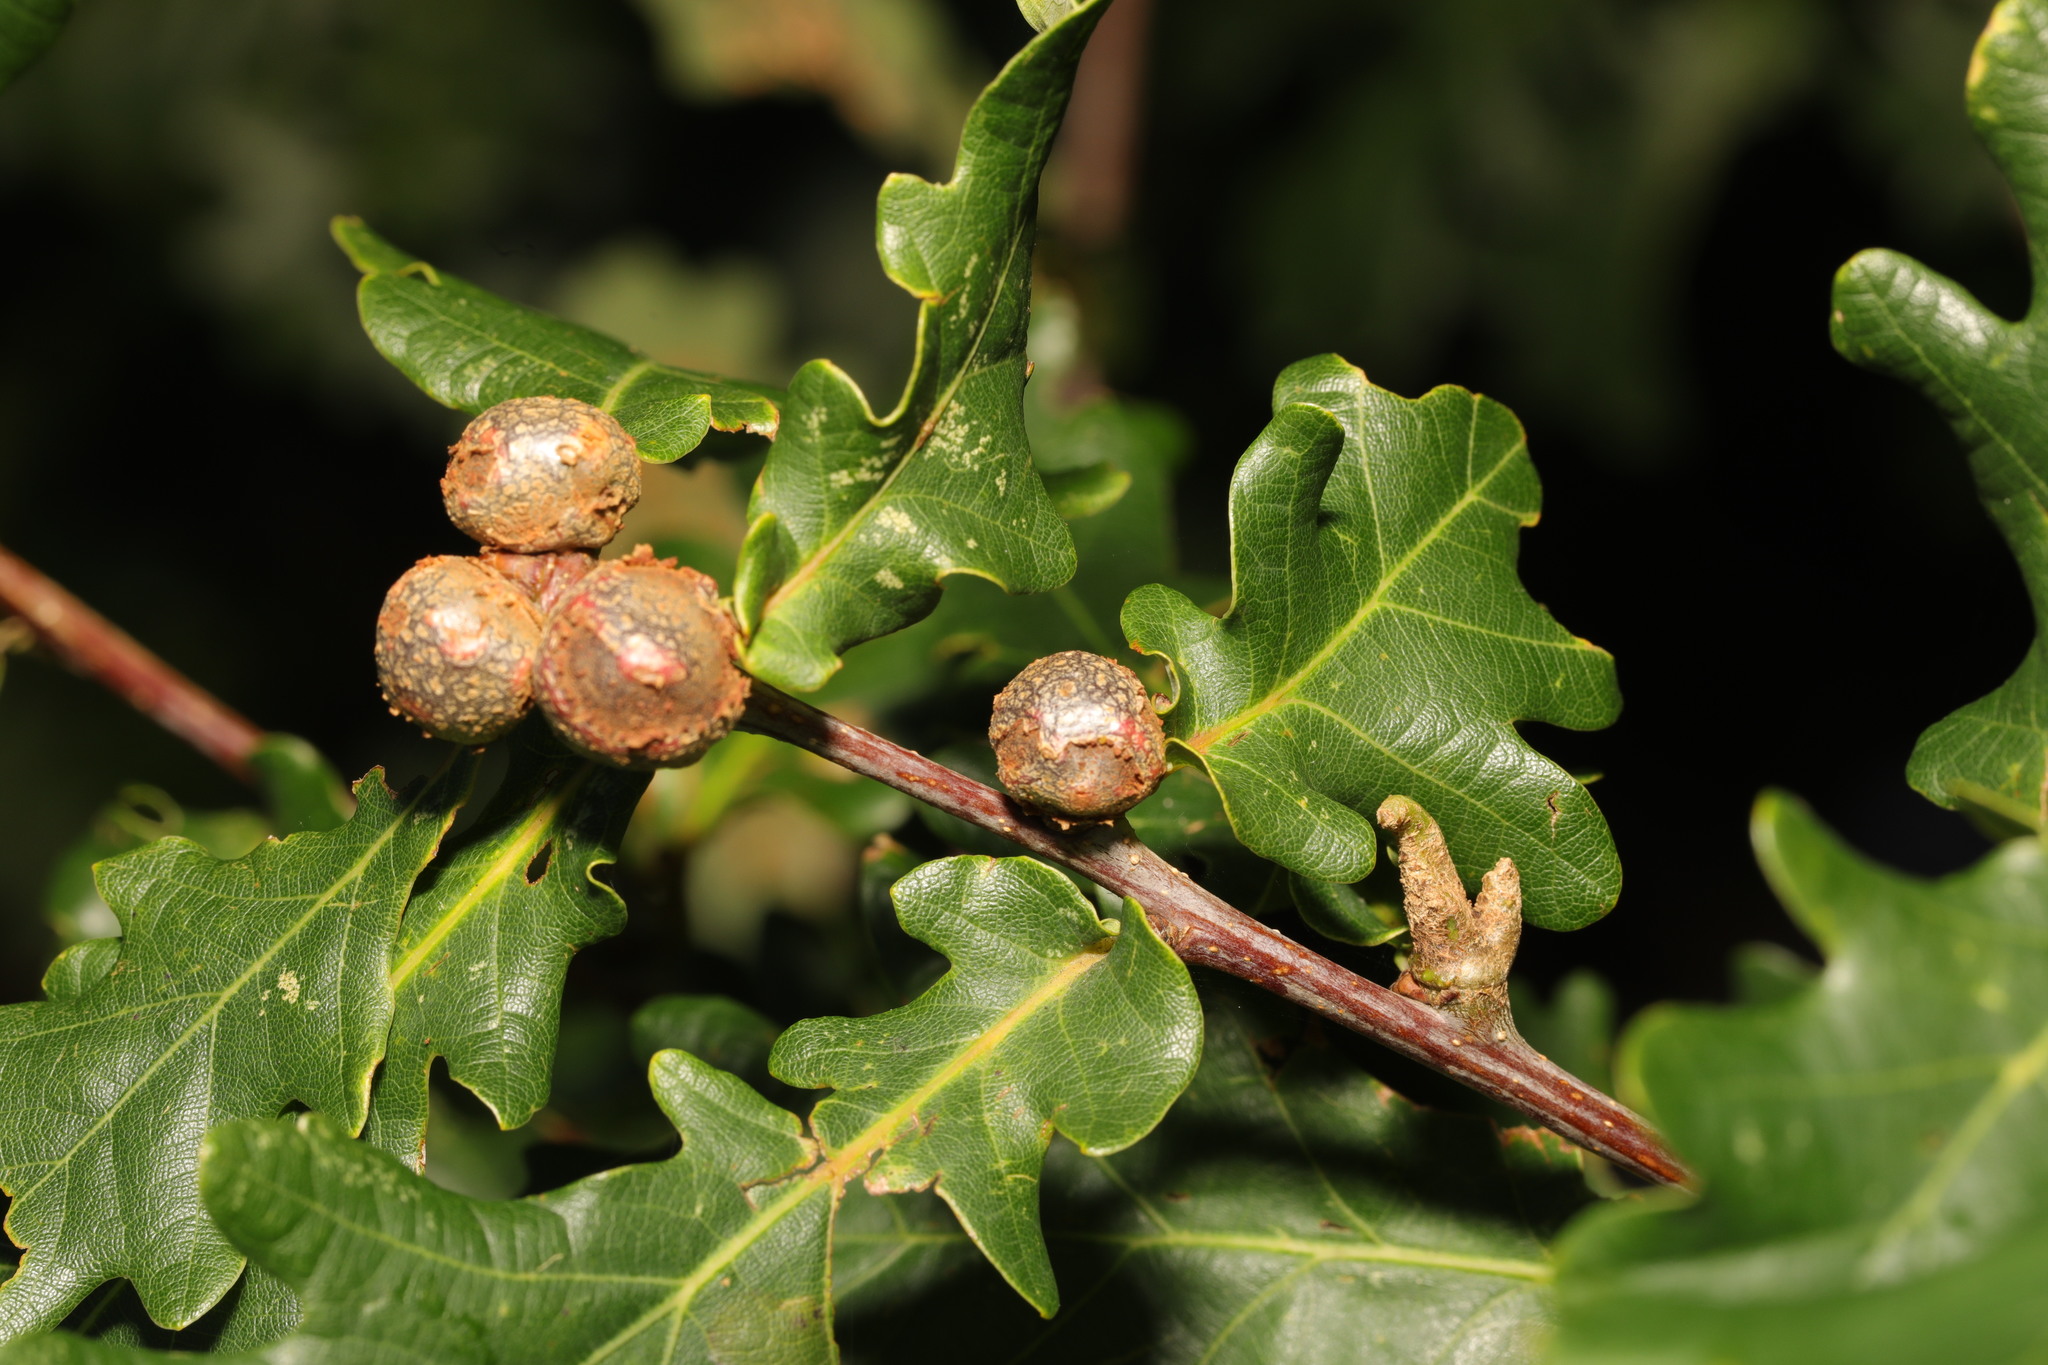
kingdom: Animalia
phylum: Arthropoda
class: Insecta
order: Hymenoptera
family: Cynipidae
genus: Andricus
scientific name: Andricus lignicolus
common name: Cola-nut gall
